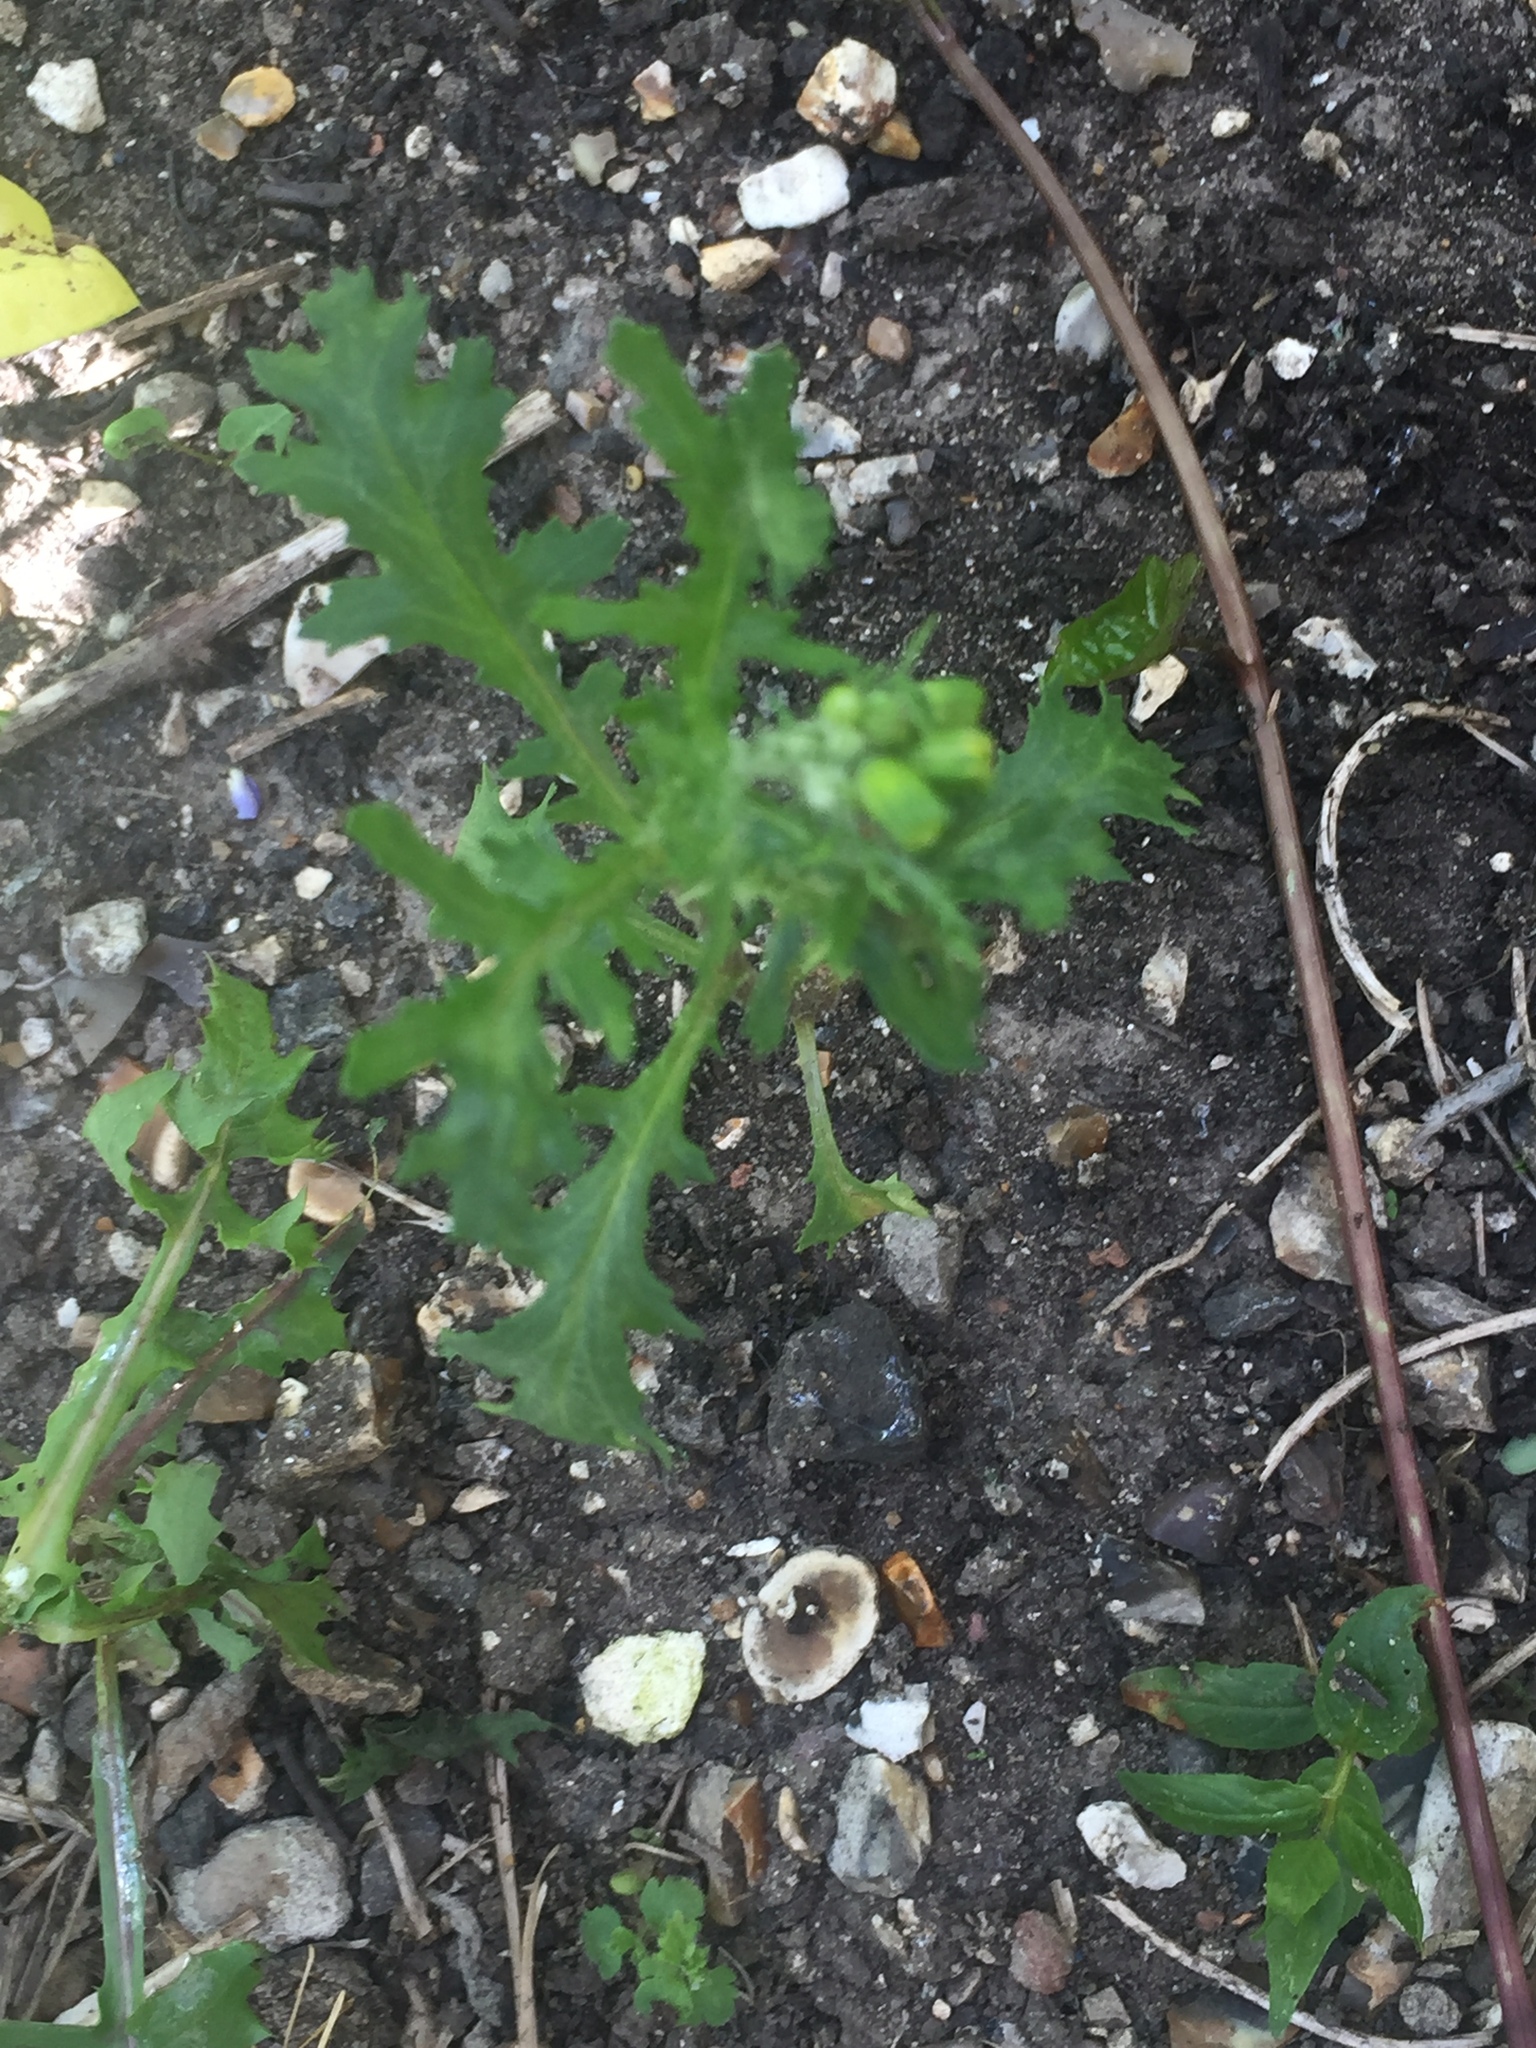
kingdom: Plantae
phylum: Tracheophyta
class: Magnoliopsida
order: Asterales
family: Asteraceae
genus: Senecio
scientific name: Senecio vulgaris
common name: Old-man-in-the-spring
